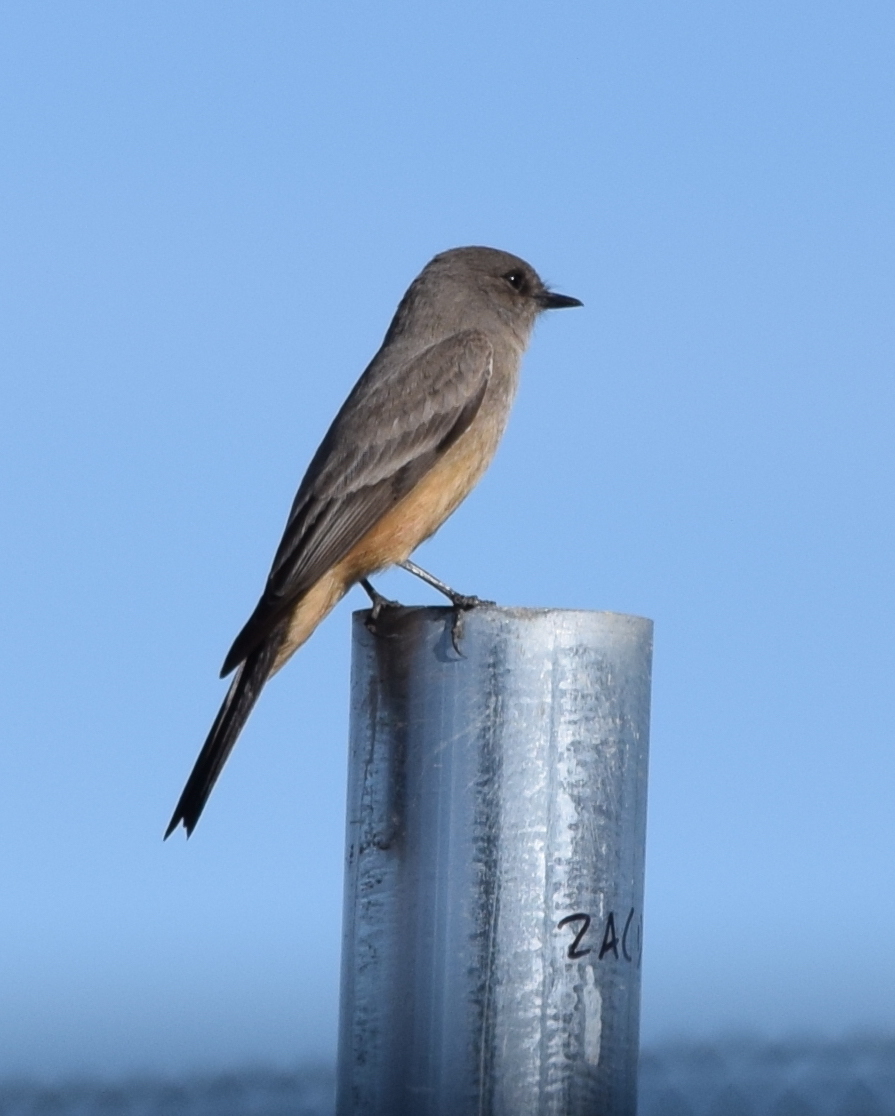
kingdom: Animalia
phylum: Chordata
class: Aves
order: Passeriformes
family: Tyrannidae
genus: Sayornis
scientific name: Sayornis saya
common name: Say's phoebe
